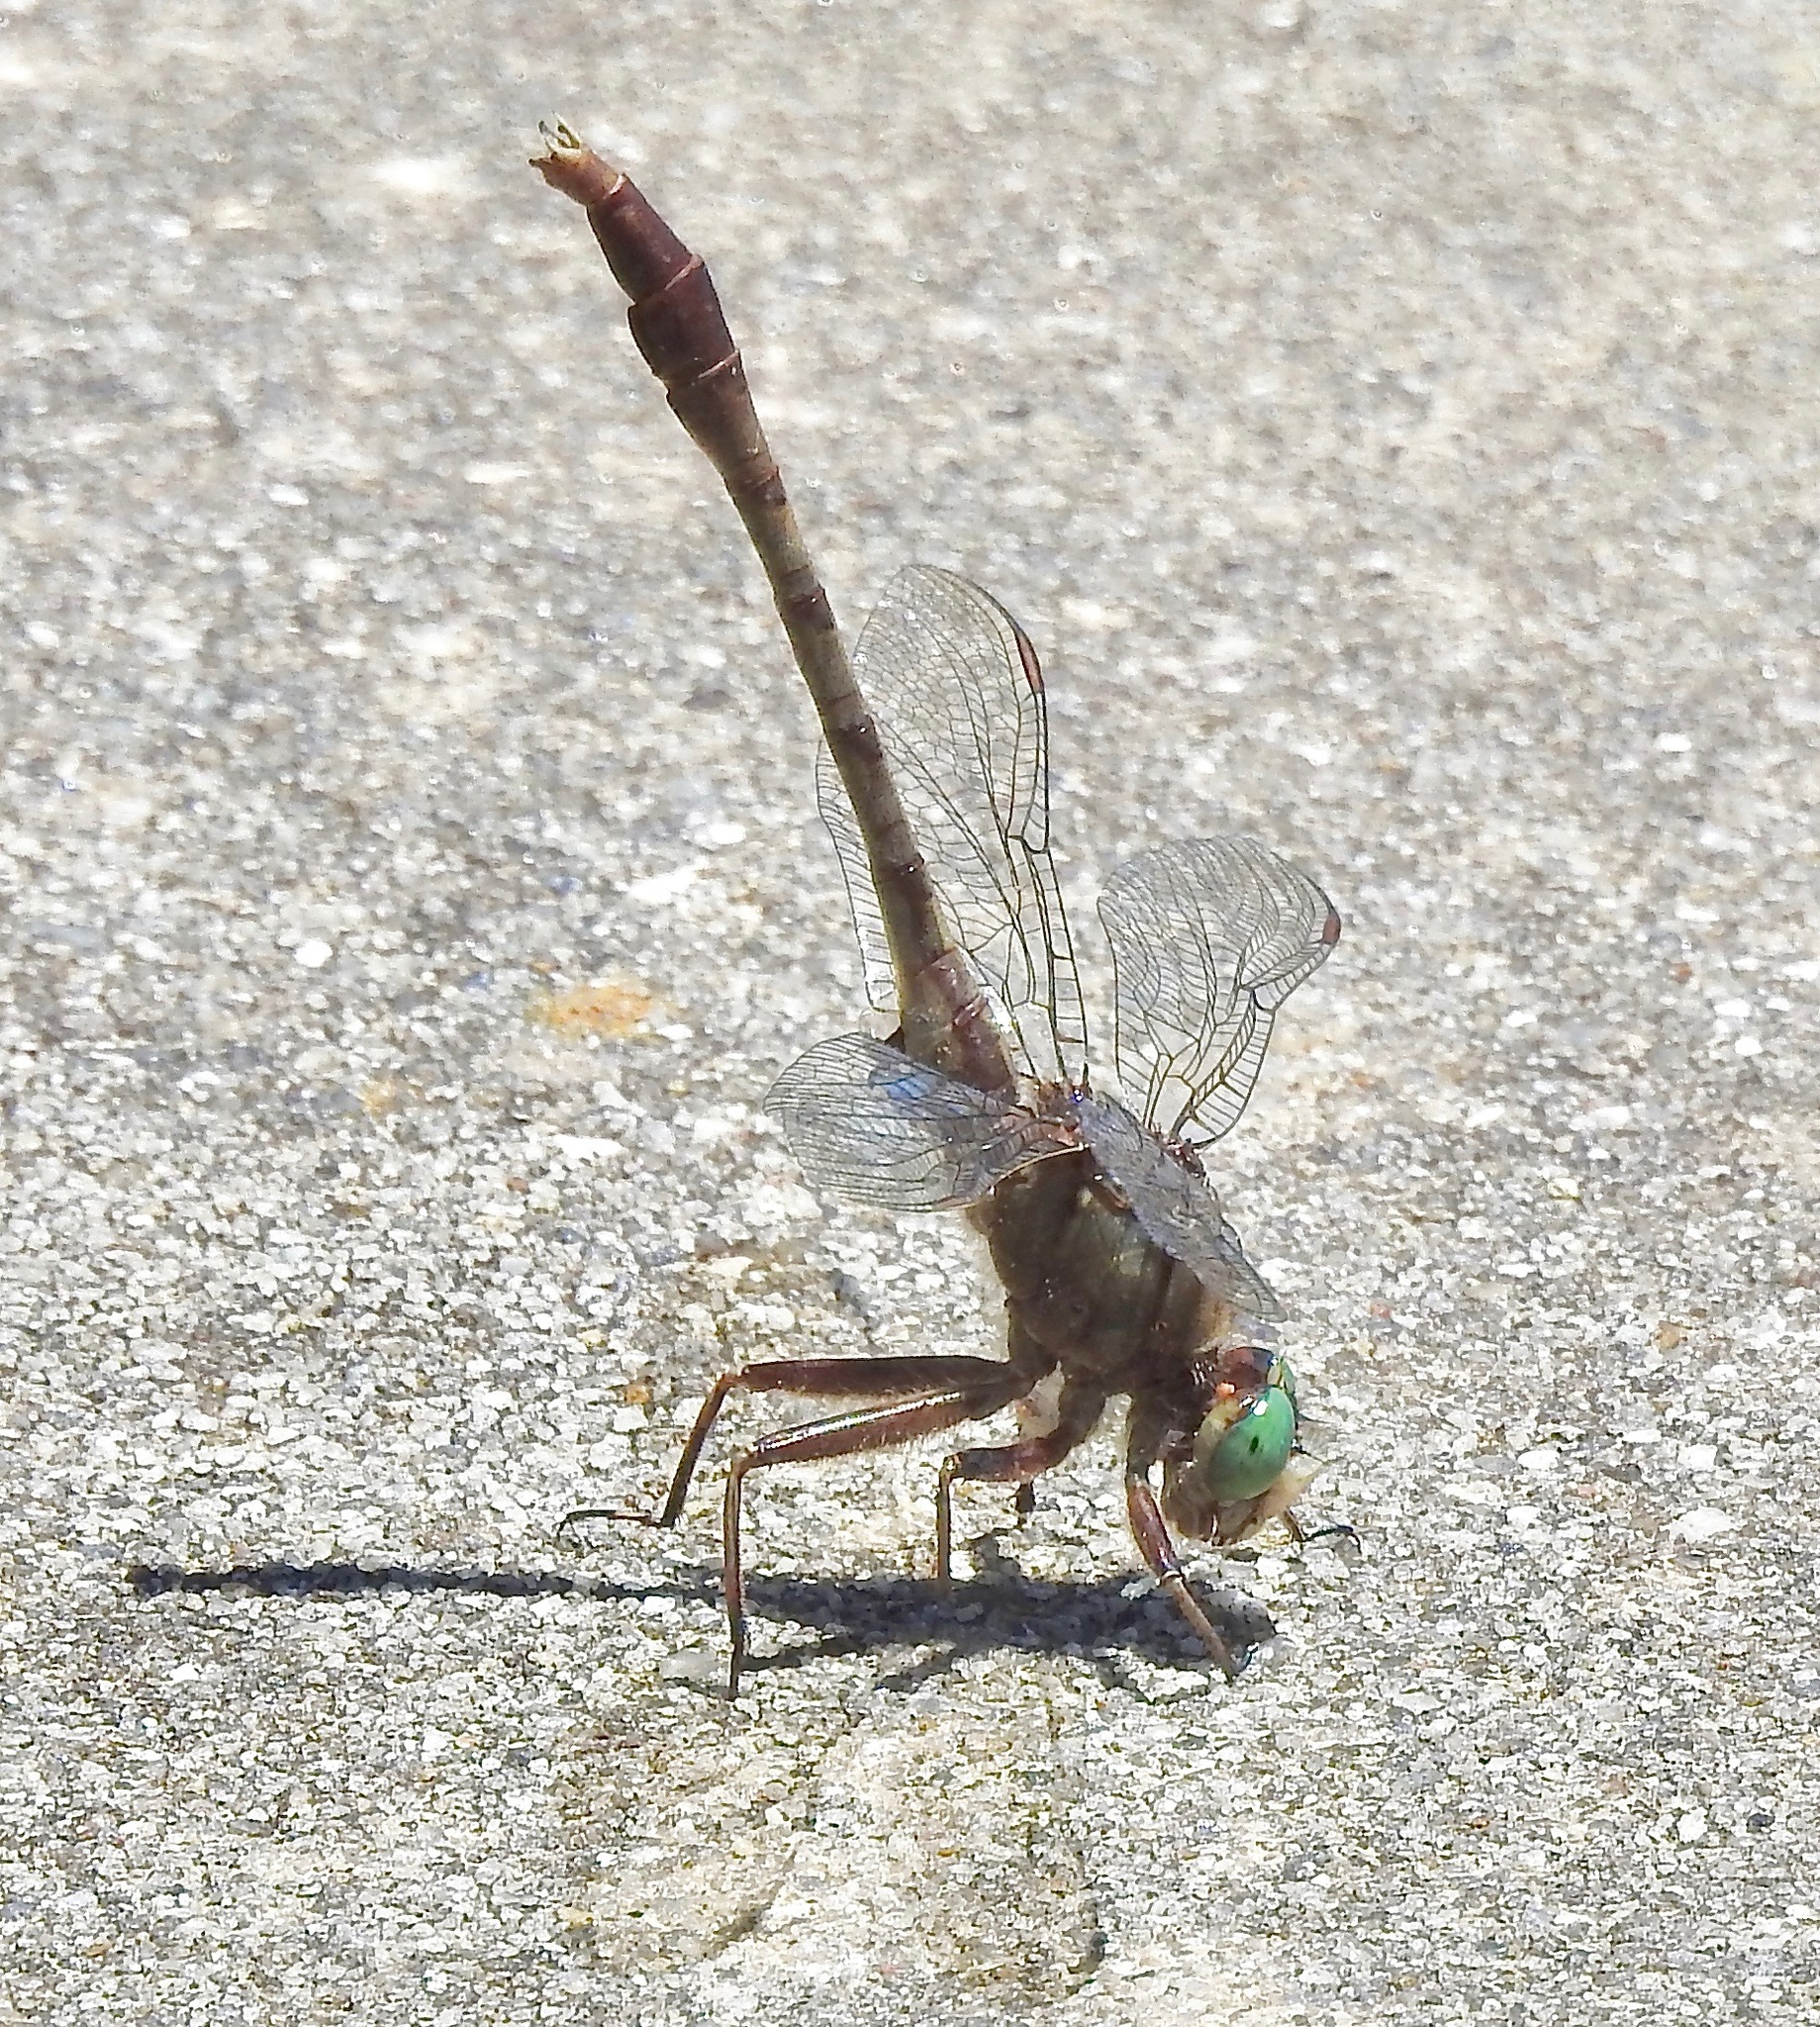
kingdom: Animalia
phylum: Arthropoda
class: Insecta
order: Odonata
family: Gomphidae
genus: Arigomphus
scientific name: Arigomphus pallidus
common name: Gray-green clubtail
